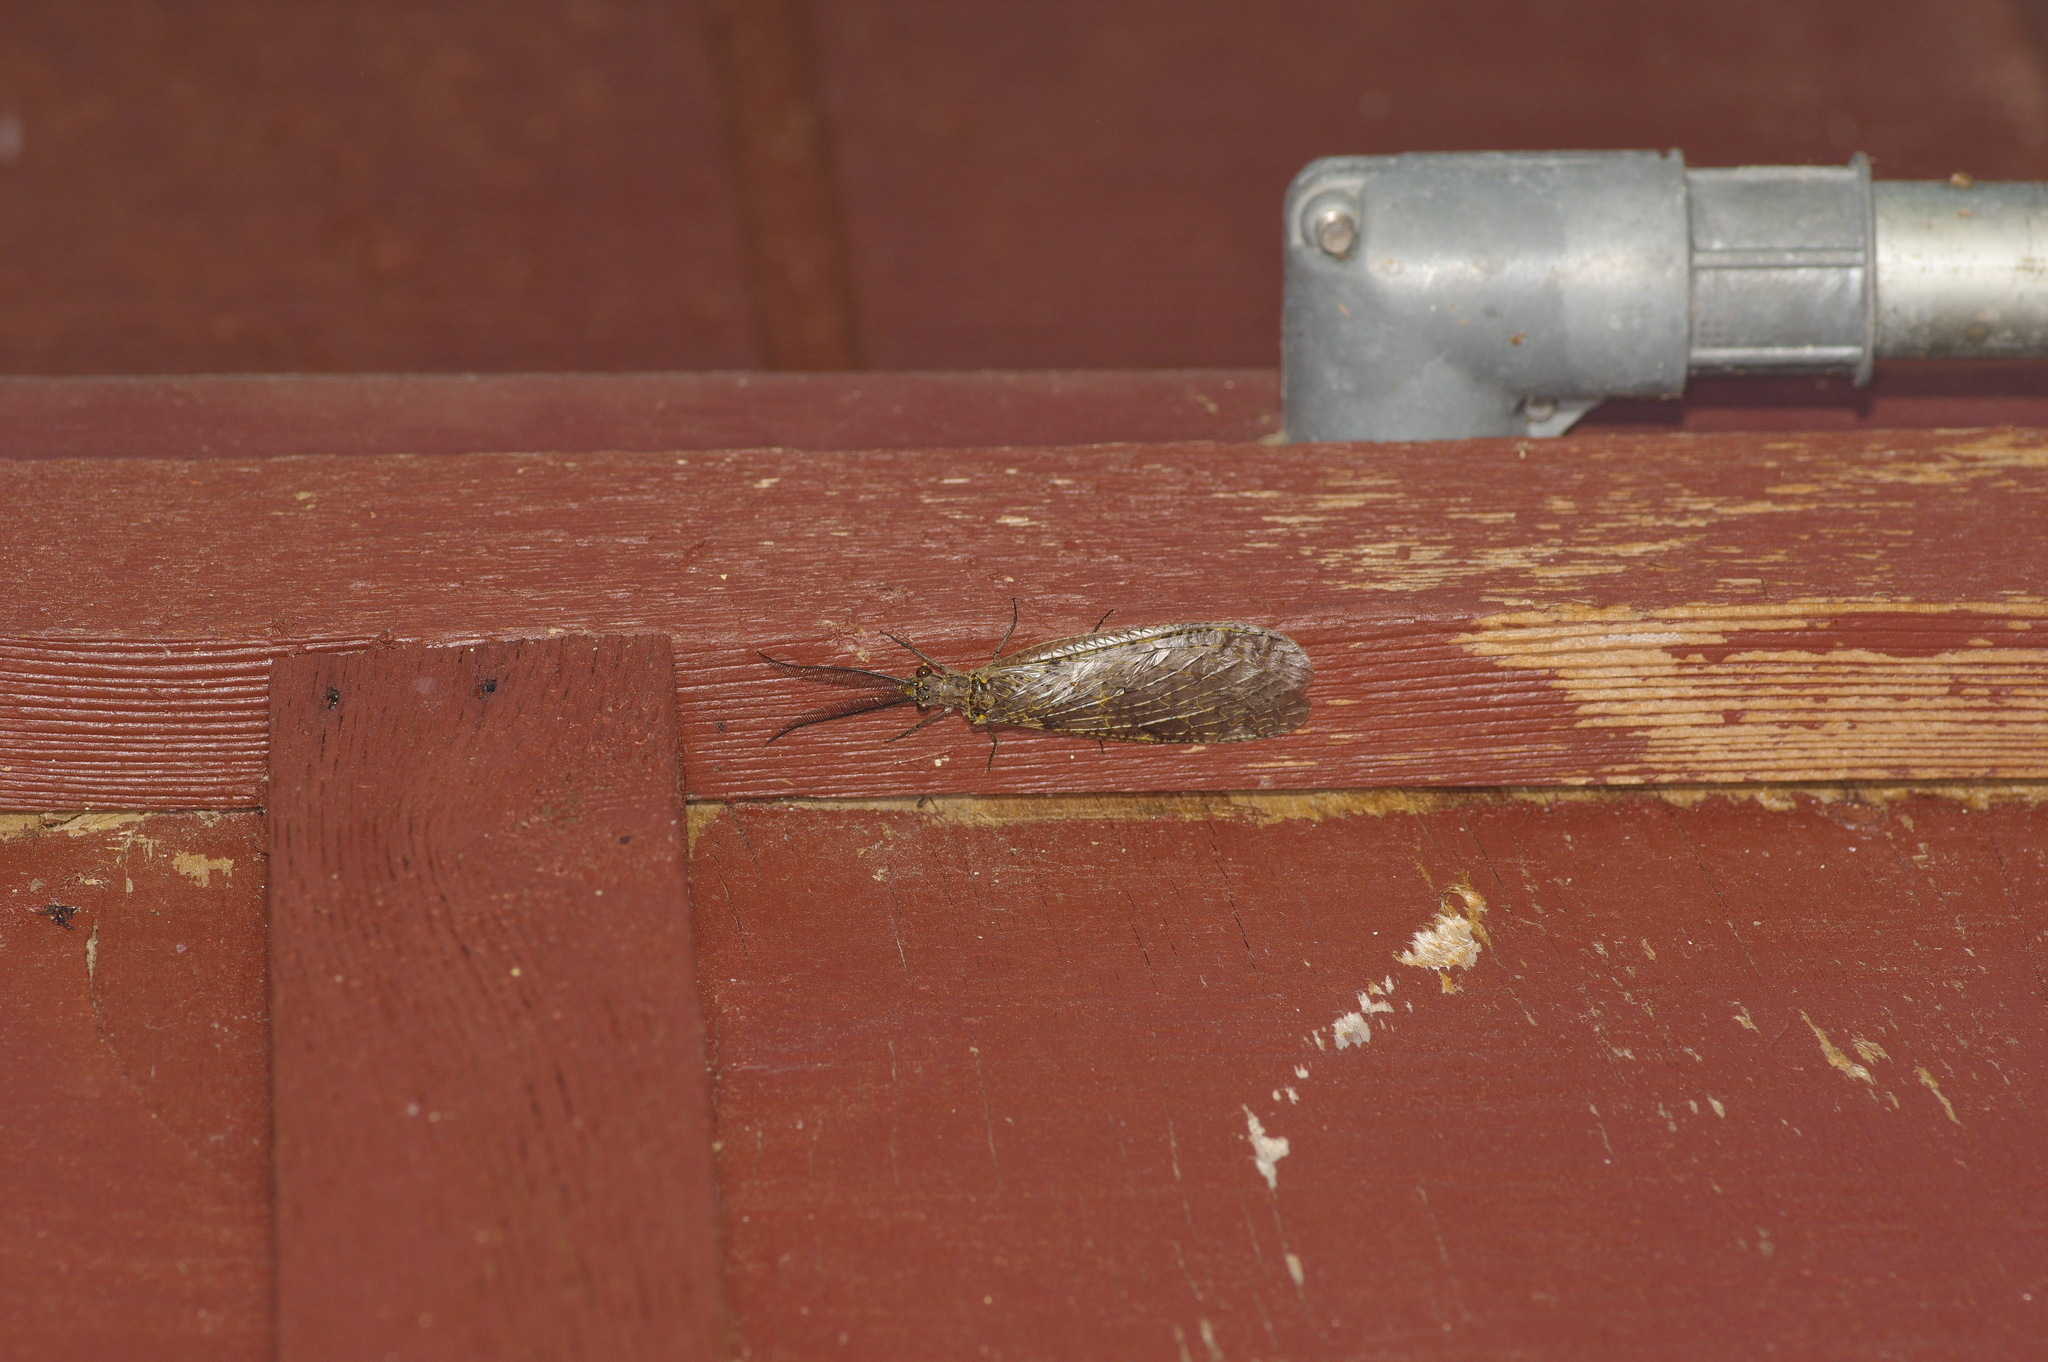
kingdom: Animalia
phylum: Arthropoda
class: Insecta
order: Megaloptera
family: Corydalidae
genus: Chauliodes
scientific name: Chauliodes rastricornis
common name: Spring fishfly
